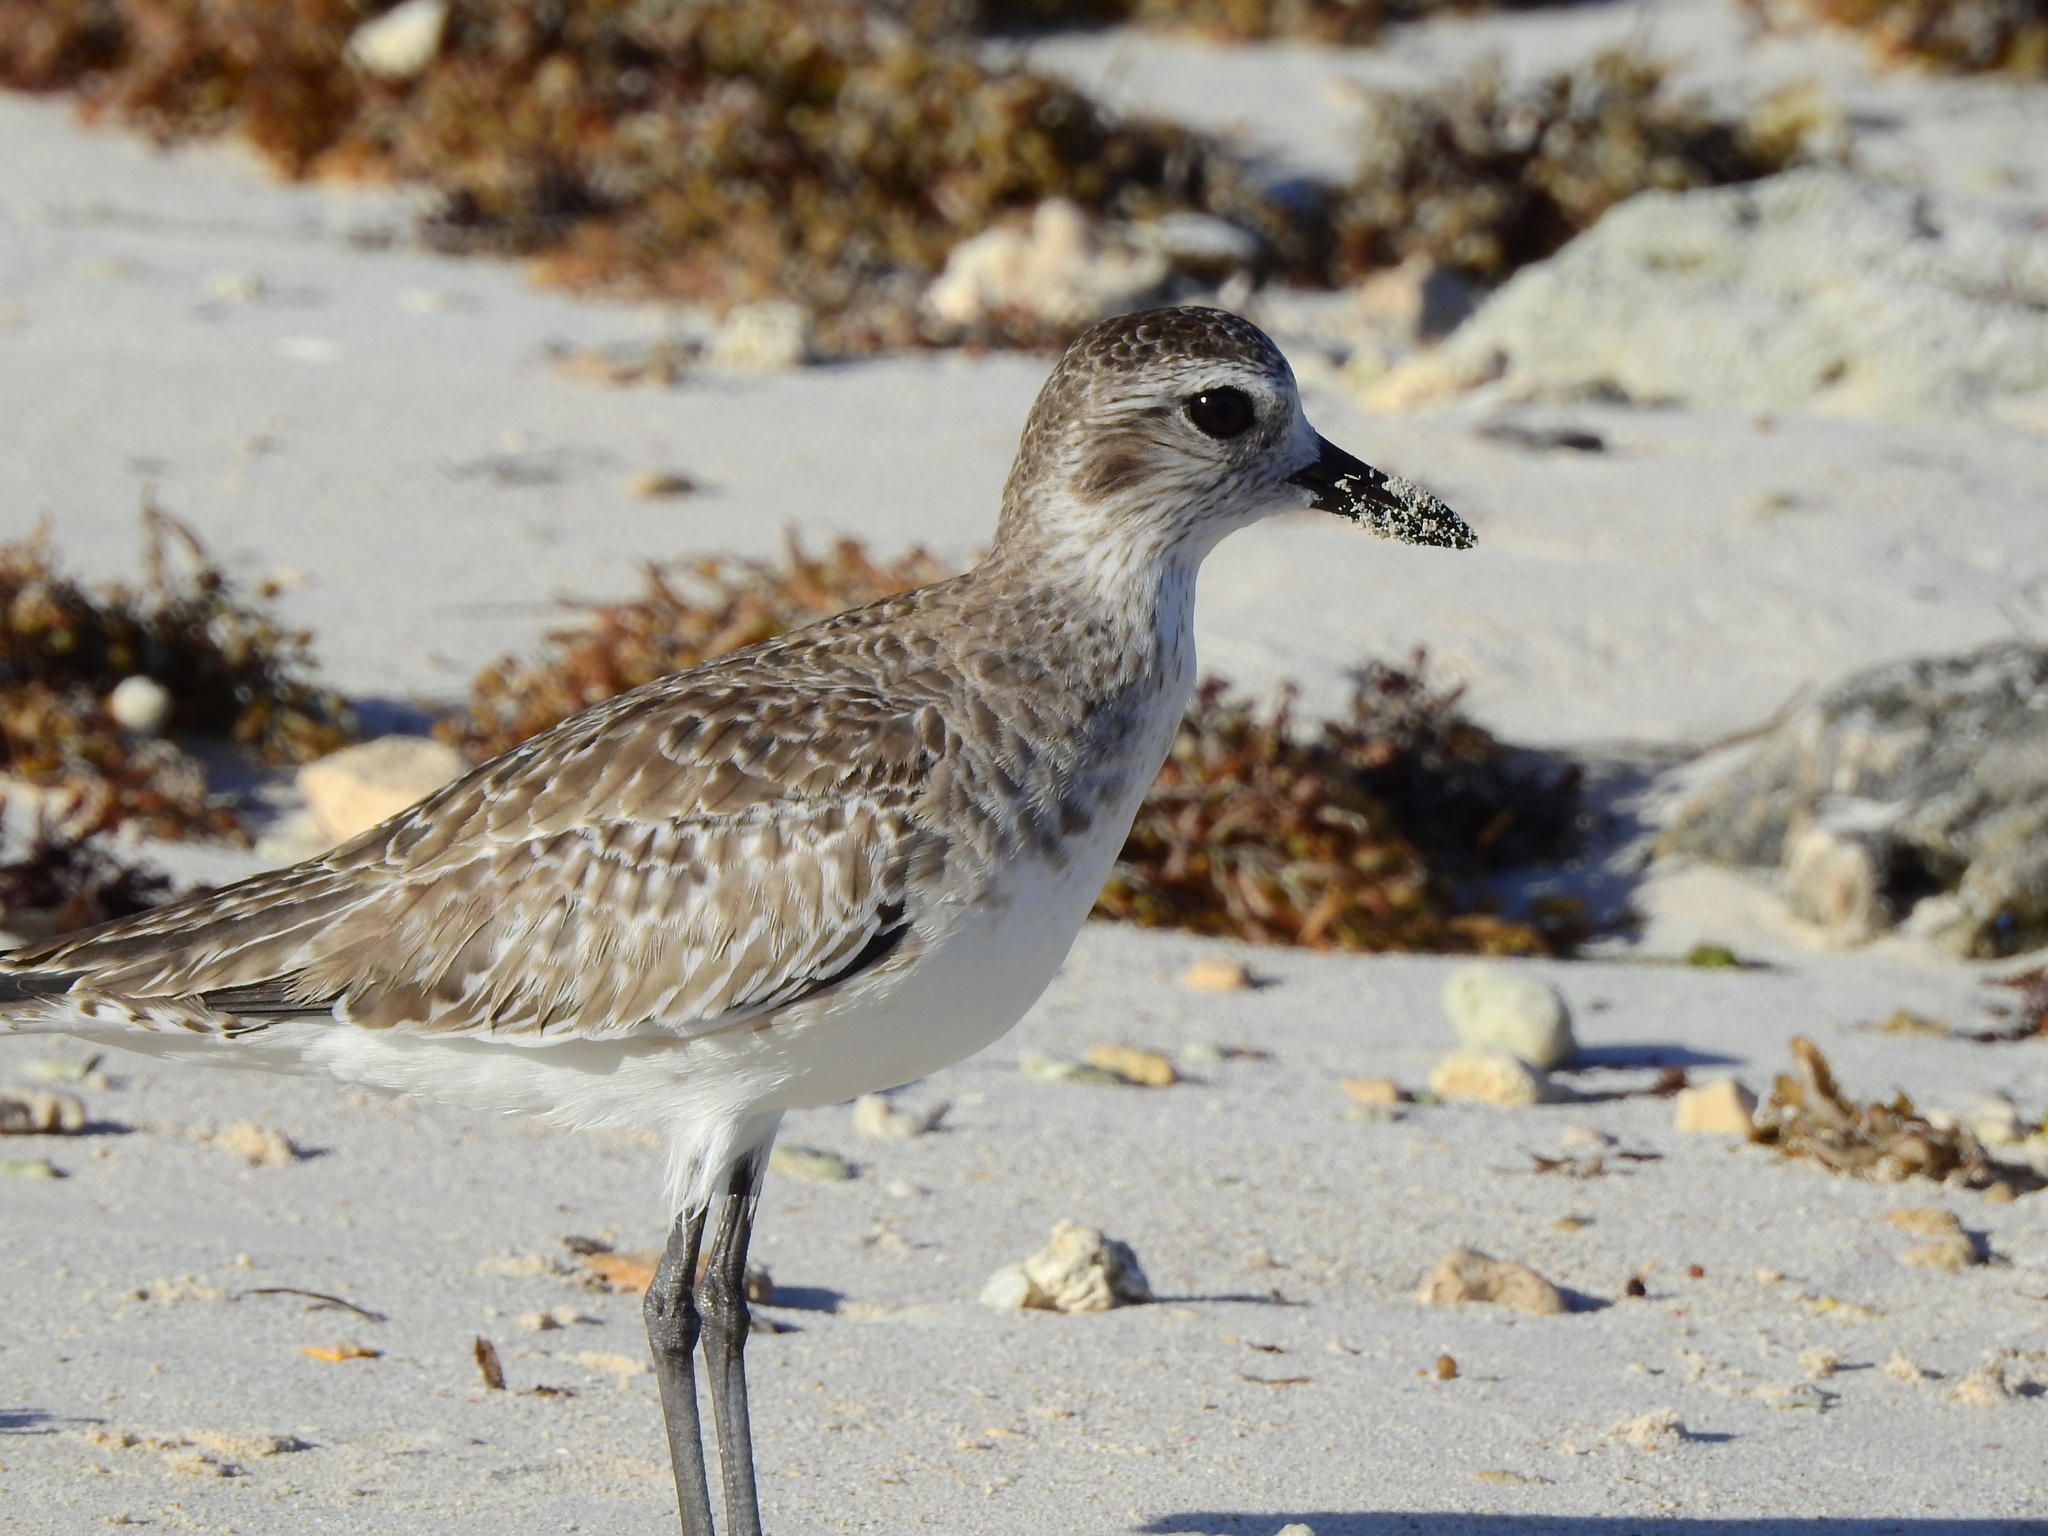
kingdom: Animalia
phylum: Chordata
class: Aves
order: Charadriiformes
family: Charadriidae
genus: Pluvialis
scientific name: Pluvialis squatarola
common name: Grey plover
